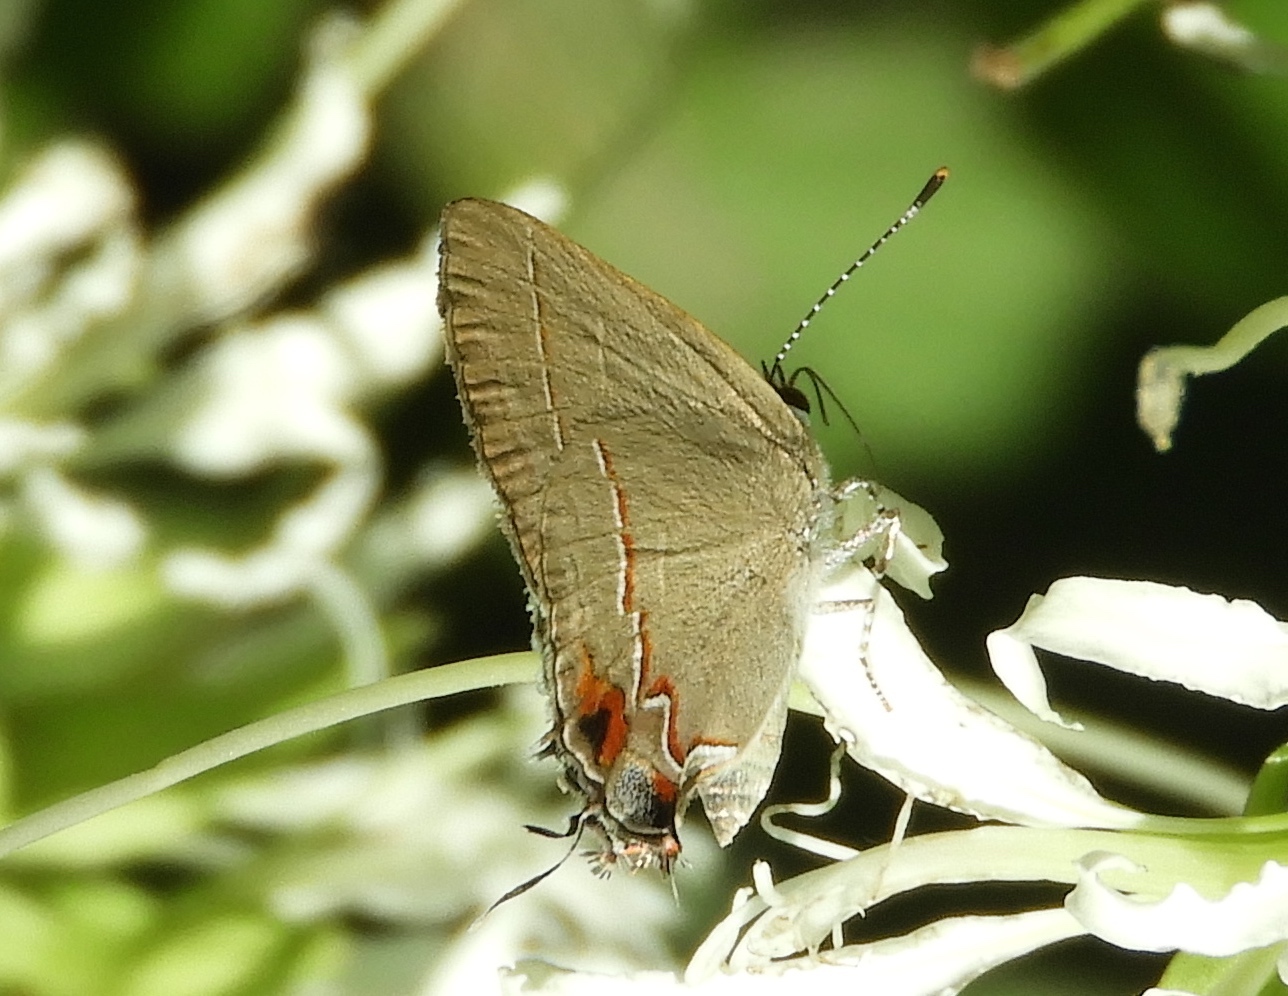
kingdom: Animalia
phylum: Arthropoda
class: Insecta
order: Lepidoptera
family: Lycaenidae
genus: Electrostrymon
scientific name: Electrostrymon endymion
